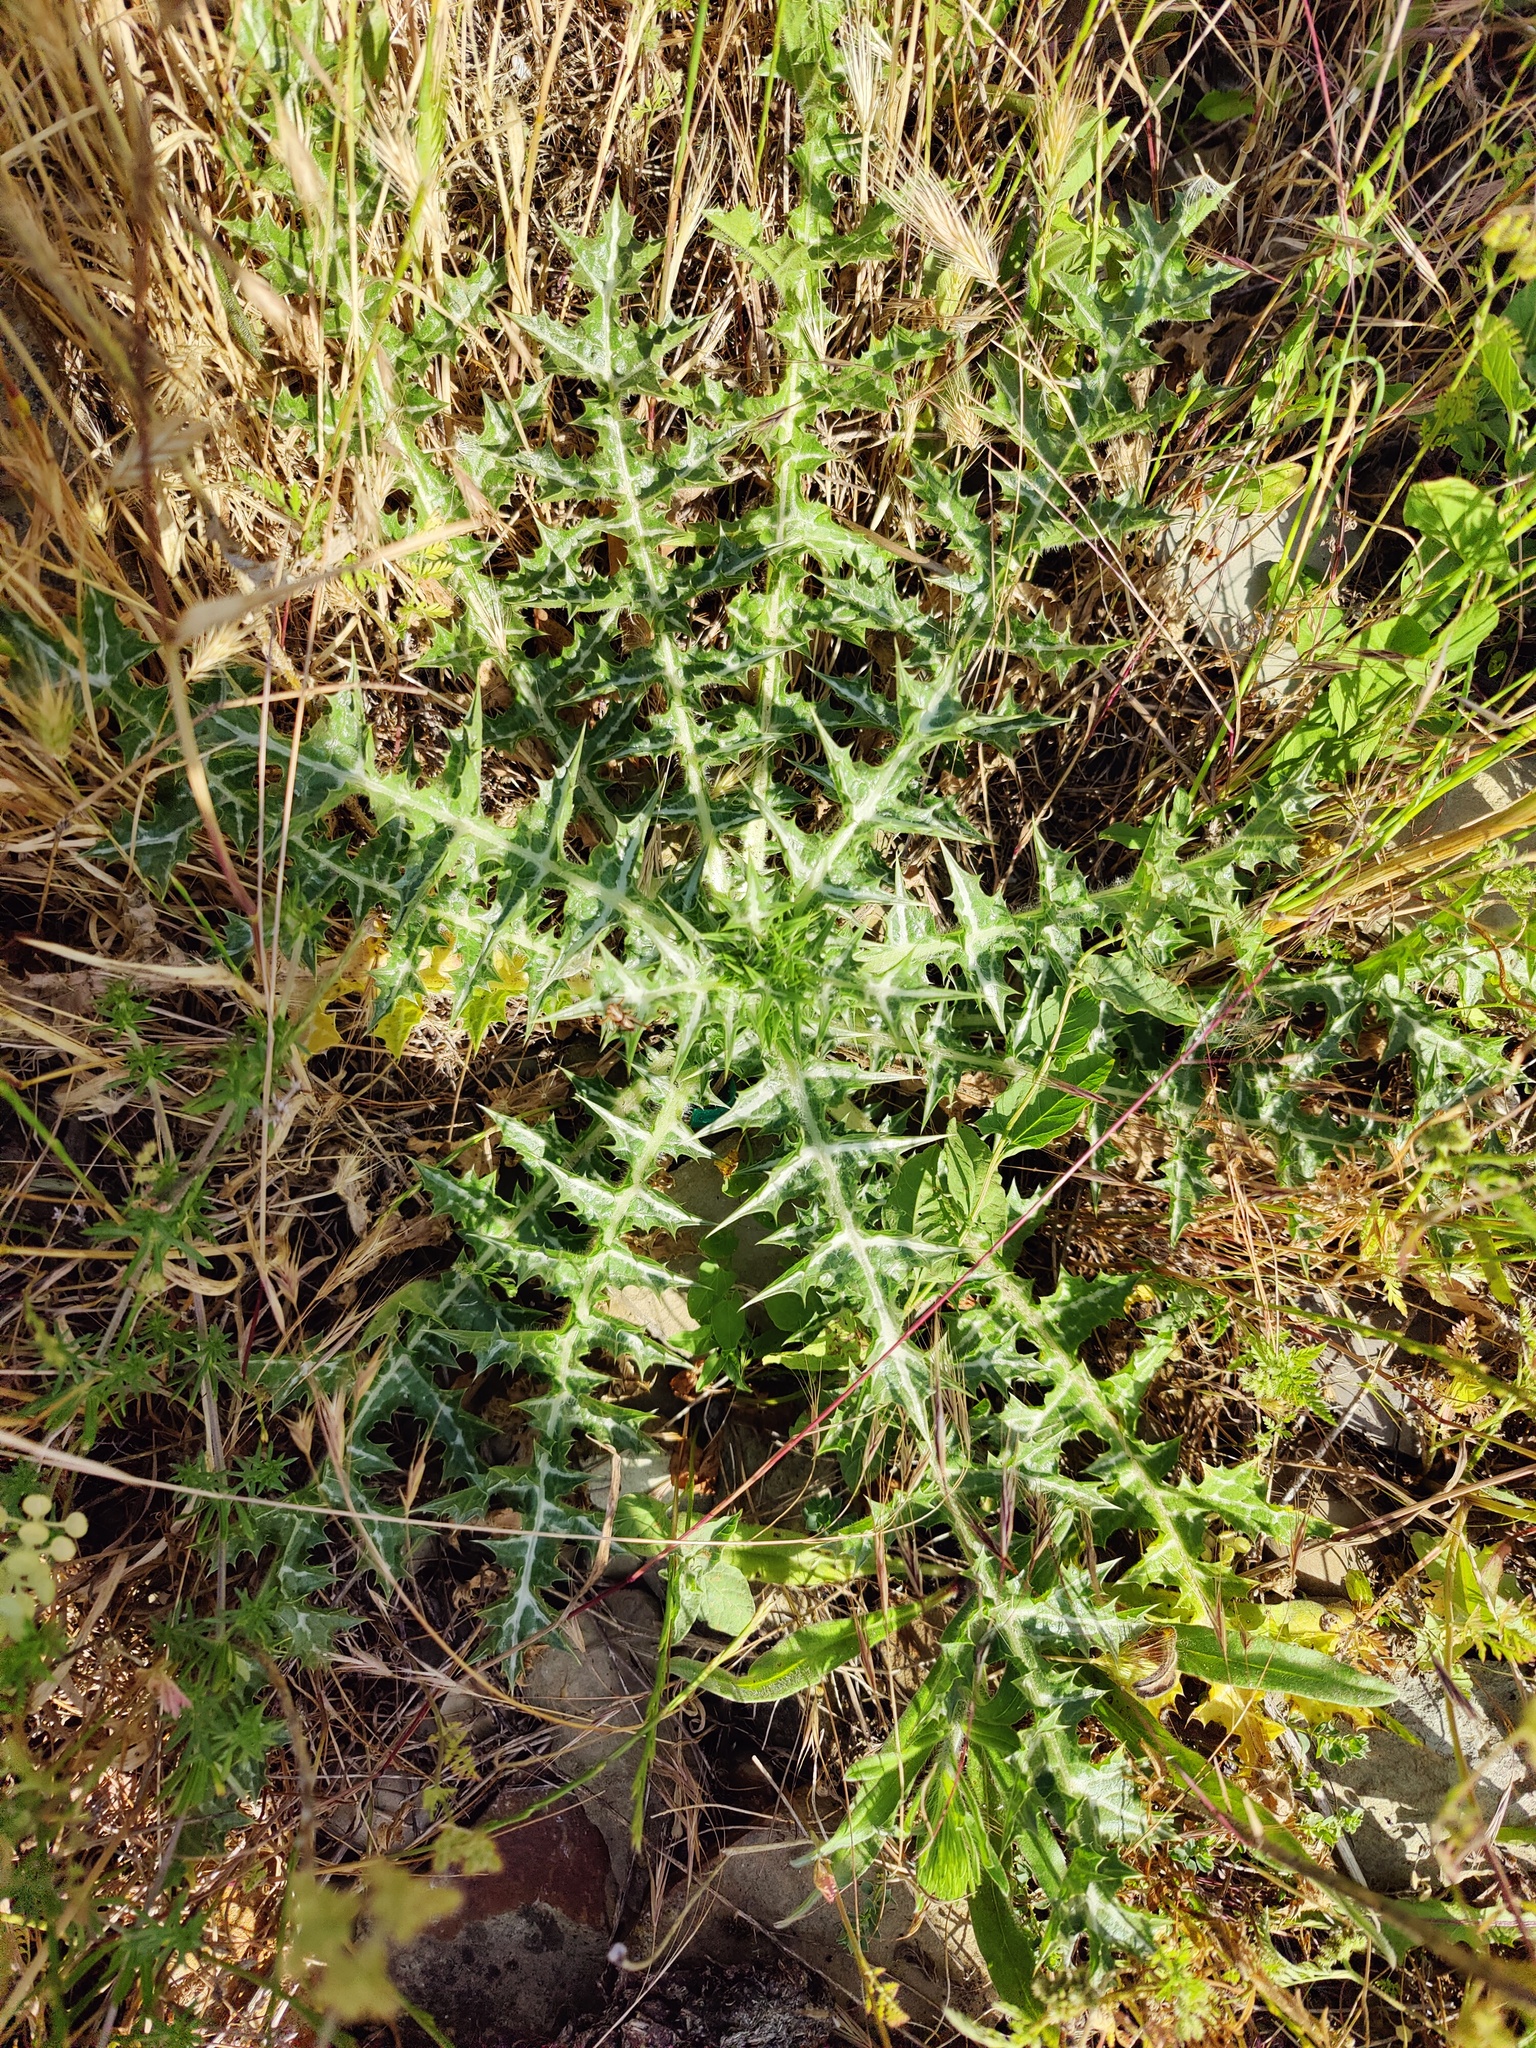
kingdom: Plantae
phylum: Tracheophyta
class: Magnoliopsida
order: Asterales
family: Asteraceae
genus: Scolymus
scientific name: Scolymus hispanicus
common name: Golden thistle
